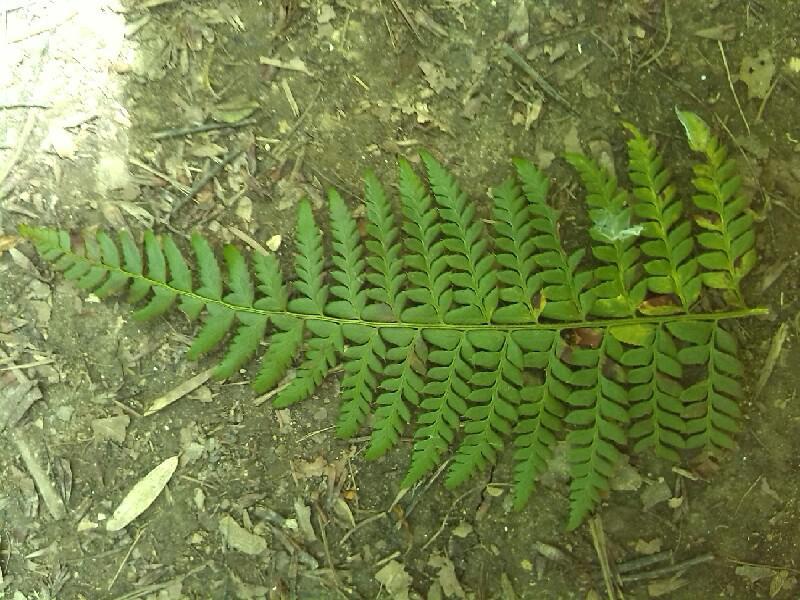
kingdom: Plantae
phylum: Tracheophyta
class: Polypodiopsida
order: Polypodiales
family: Dryopteridaceae
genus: Polystichum
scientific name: Polystichum aculeatum
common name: Hard shield-fern
